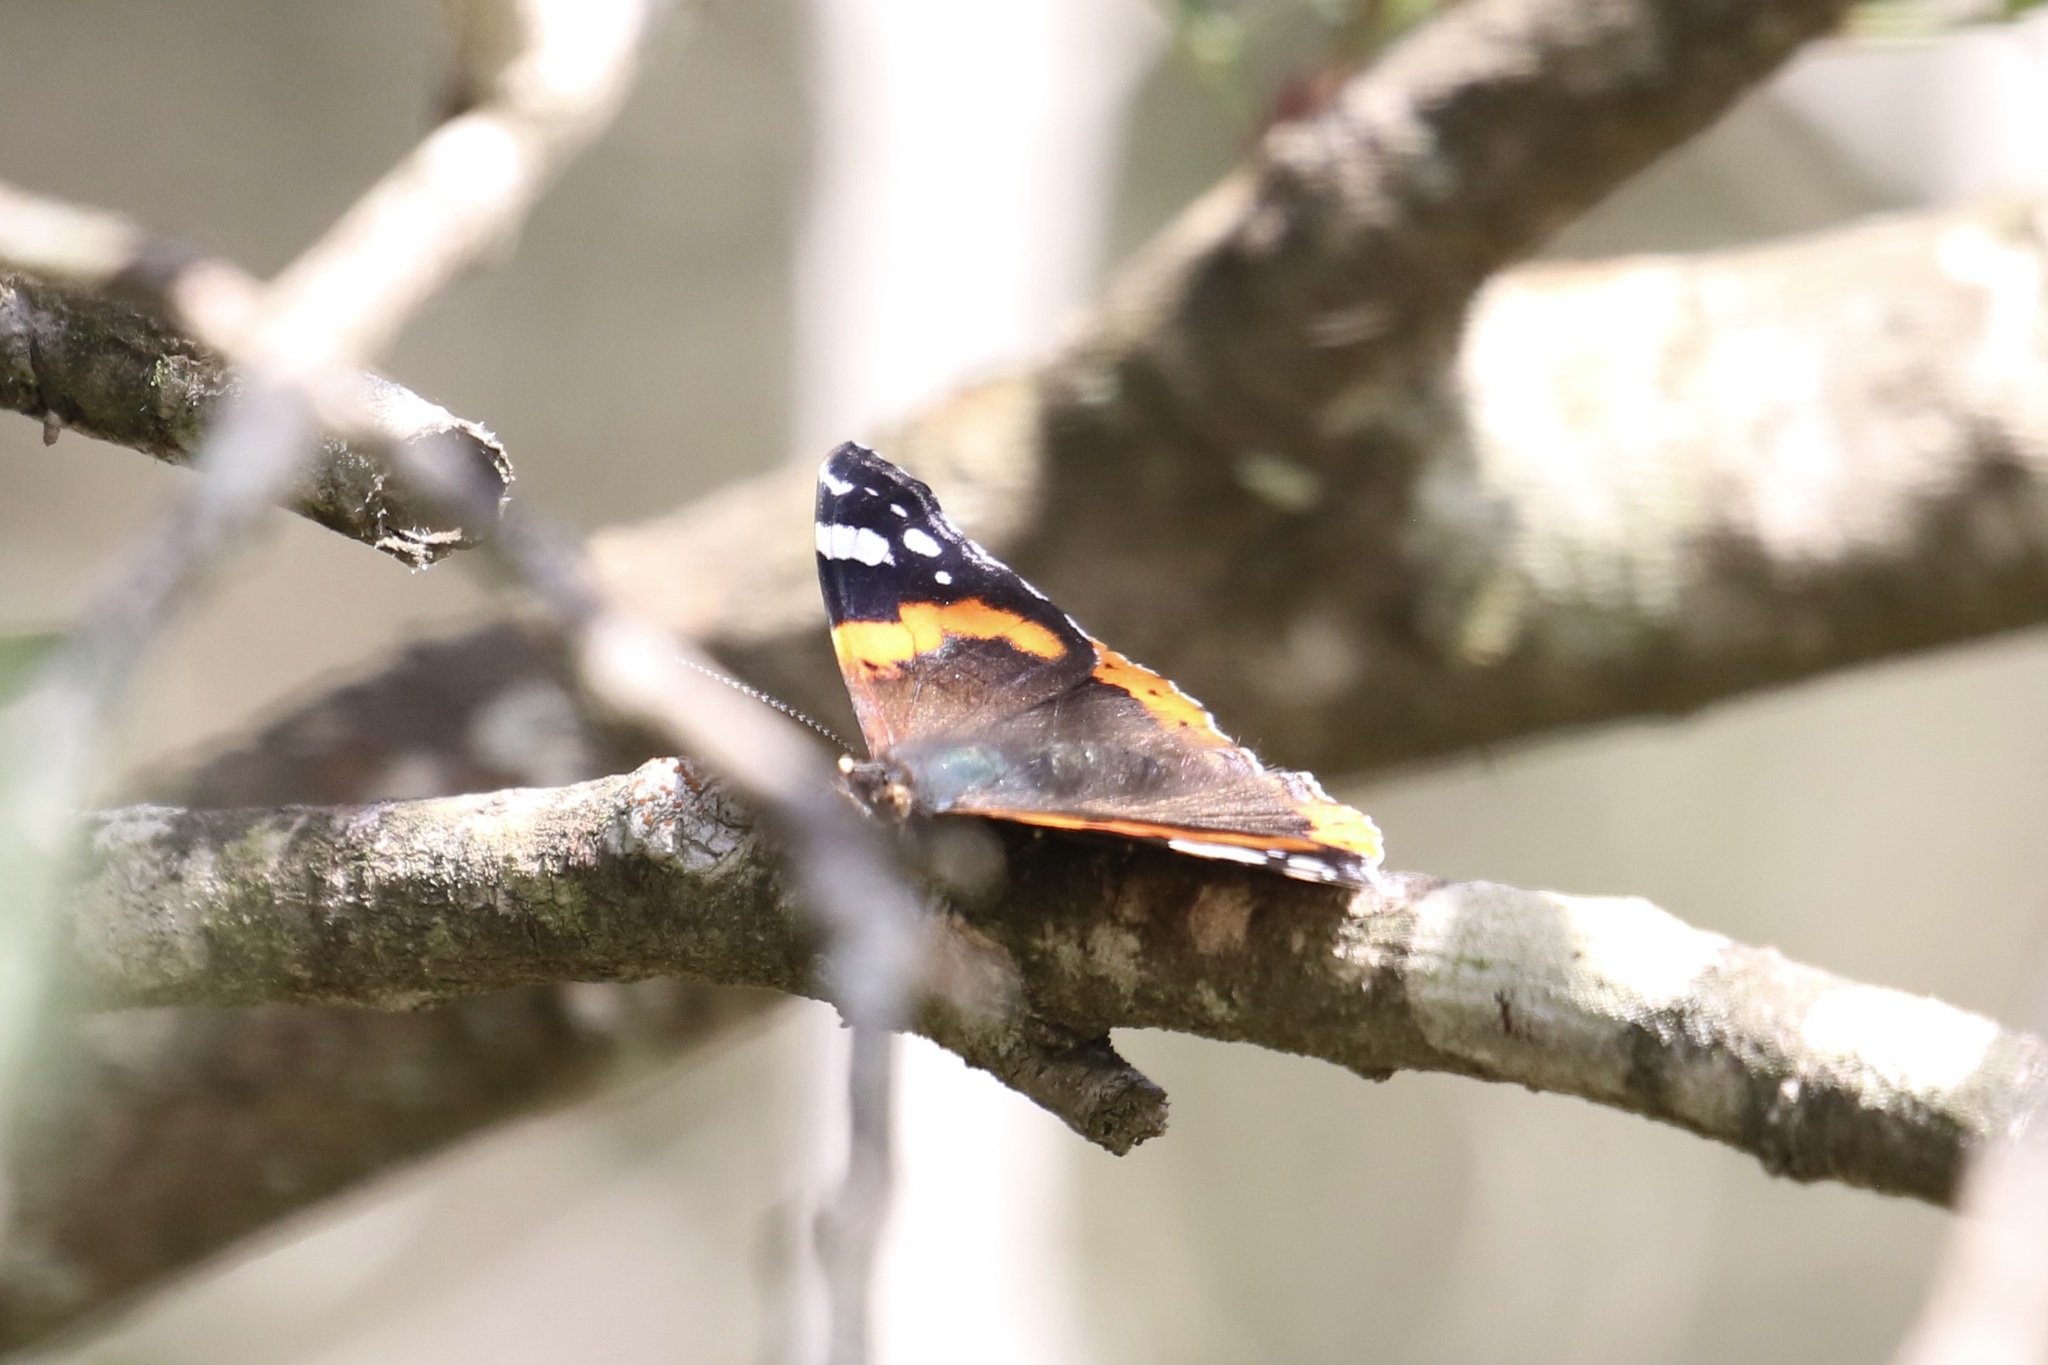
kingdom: Animalia
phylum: Arthropoda
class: Insecta
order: Lepidoptera
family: Nymphalidae
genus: Vanessa
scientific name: Vanessa atalanta
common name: Red admiral
